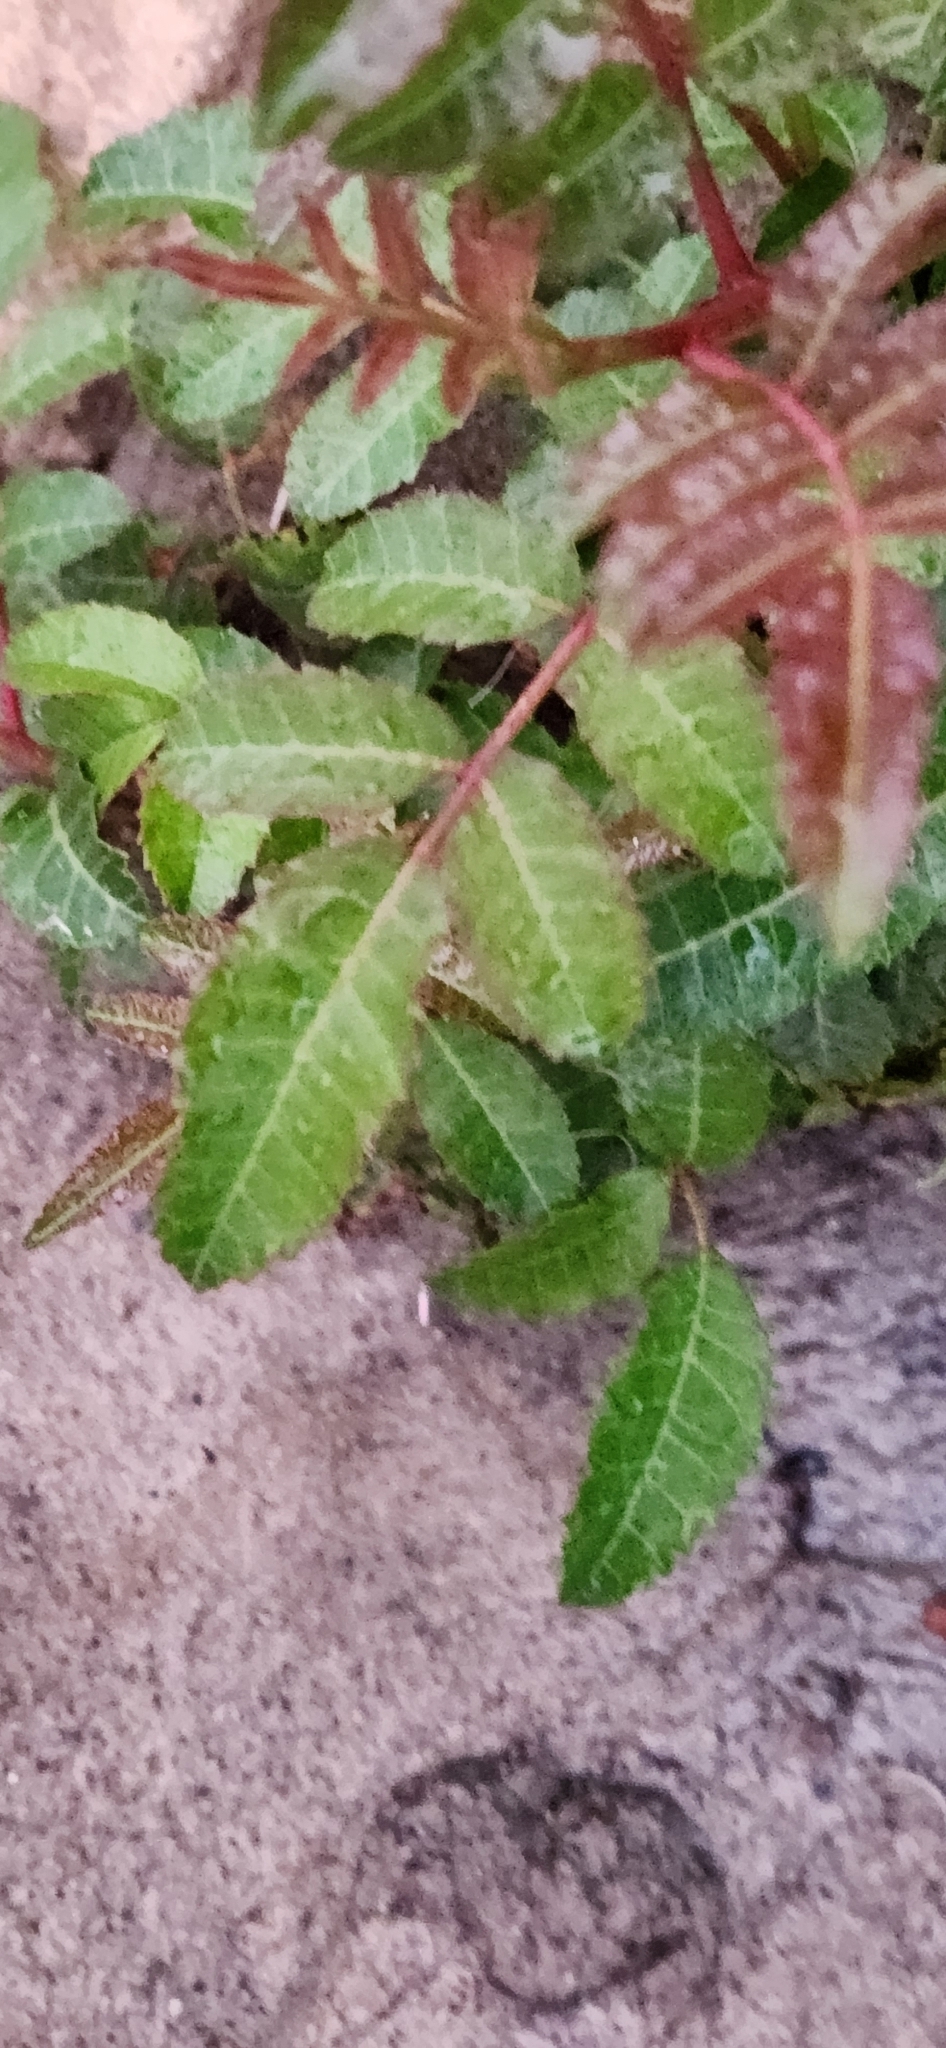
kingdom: Plantae
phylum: Tracheophyta
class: Magnoliopsida
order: Sapindales
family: Anacardiaceae
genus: Schinus
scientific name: Schinus terebinthifolia
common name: Brazilian peppertree
